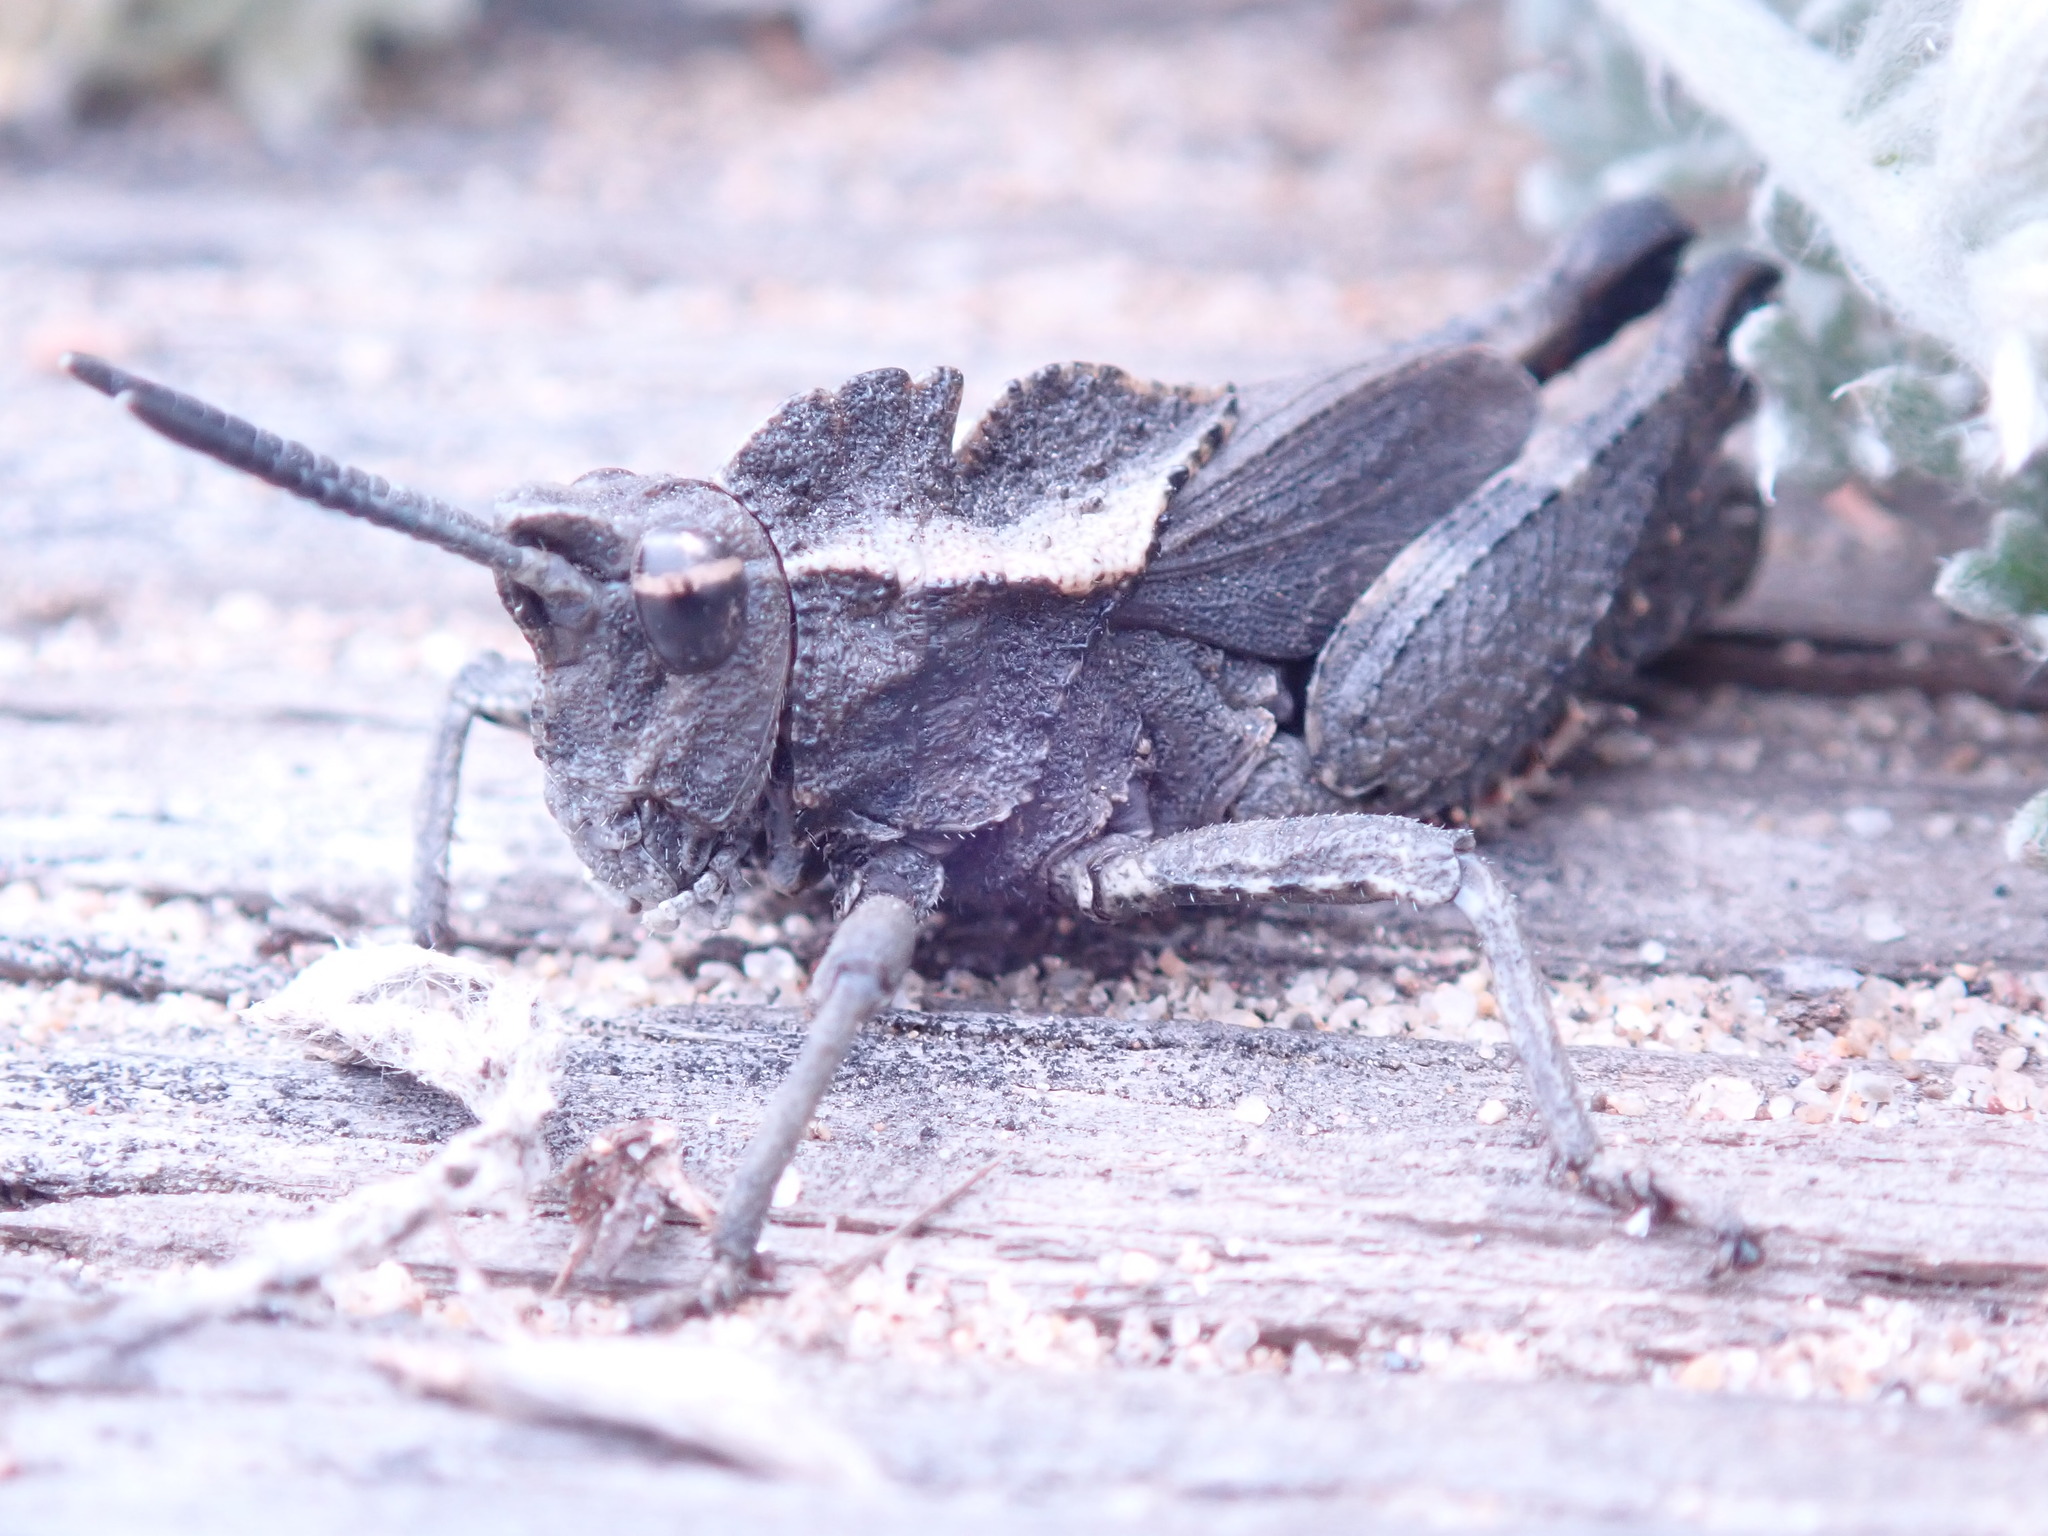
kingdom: Animalia
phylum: Arthropoda
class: Insecta
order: Orthoptera
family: Romaleidae
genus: Dracotettix
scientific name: Dracotettix monstrosus
